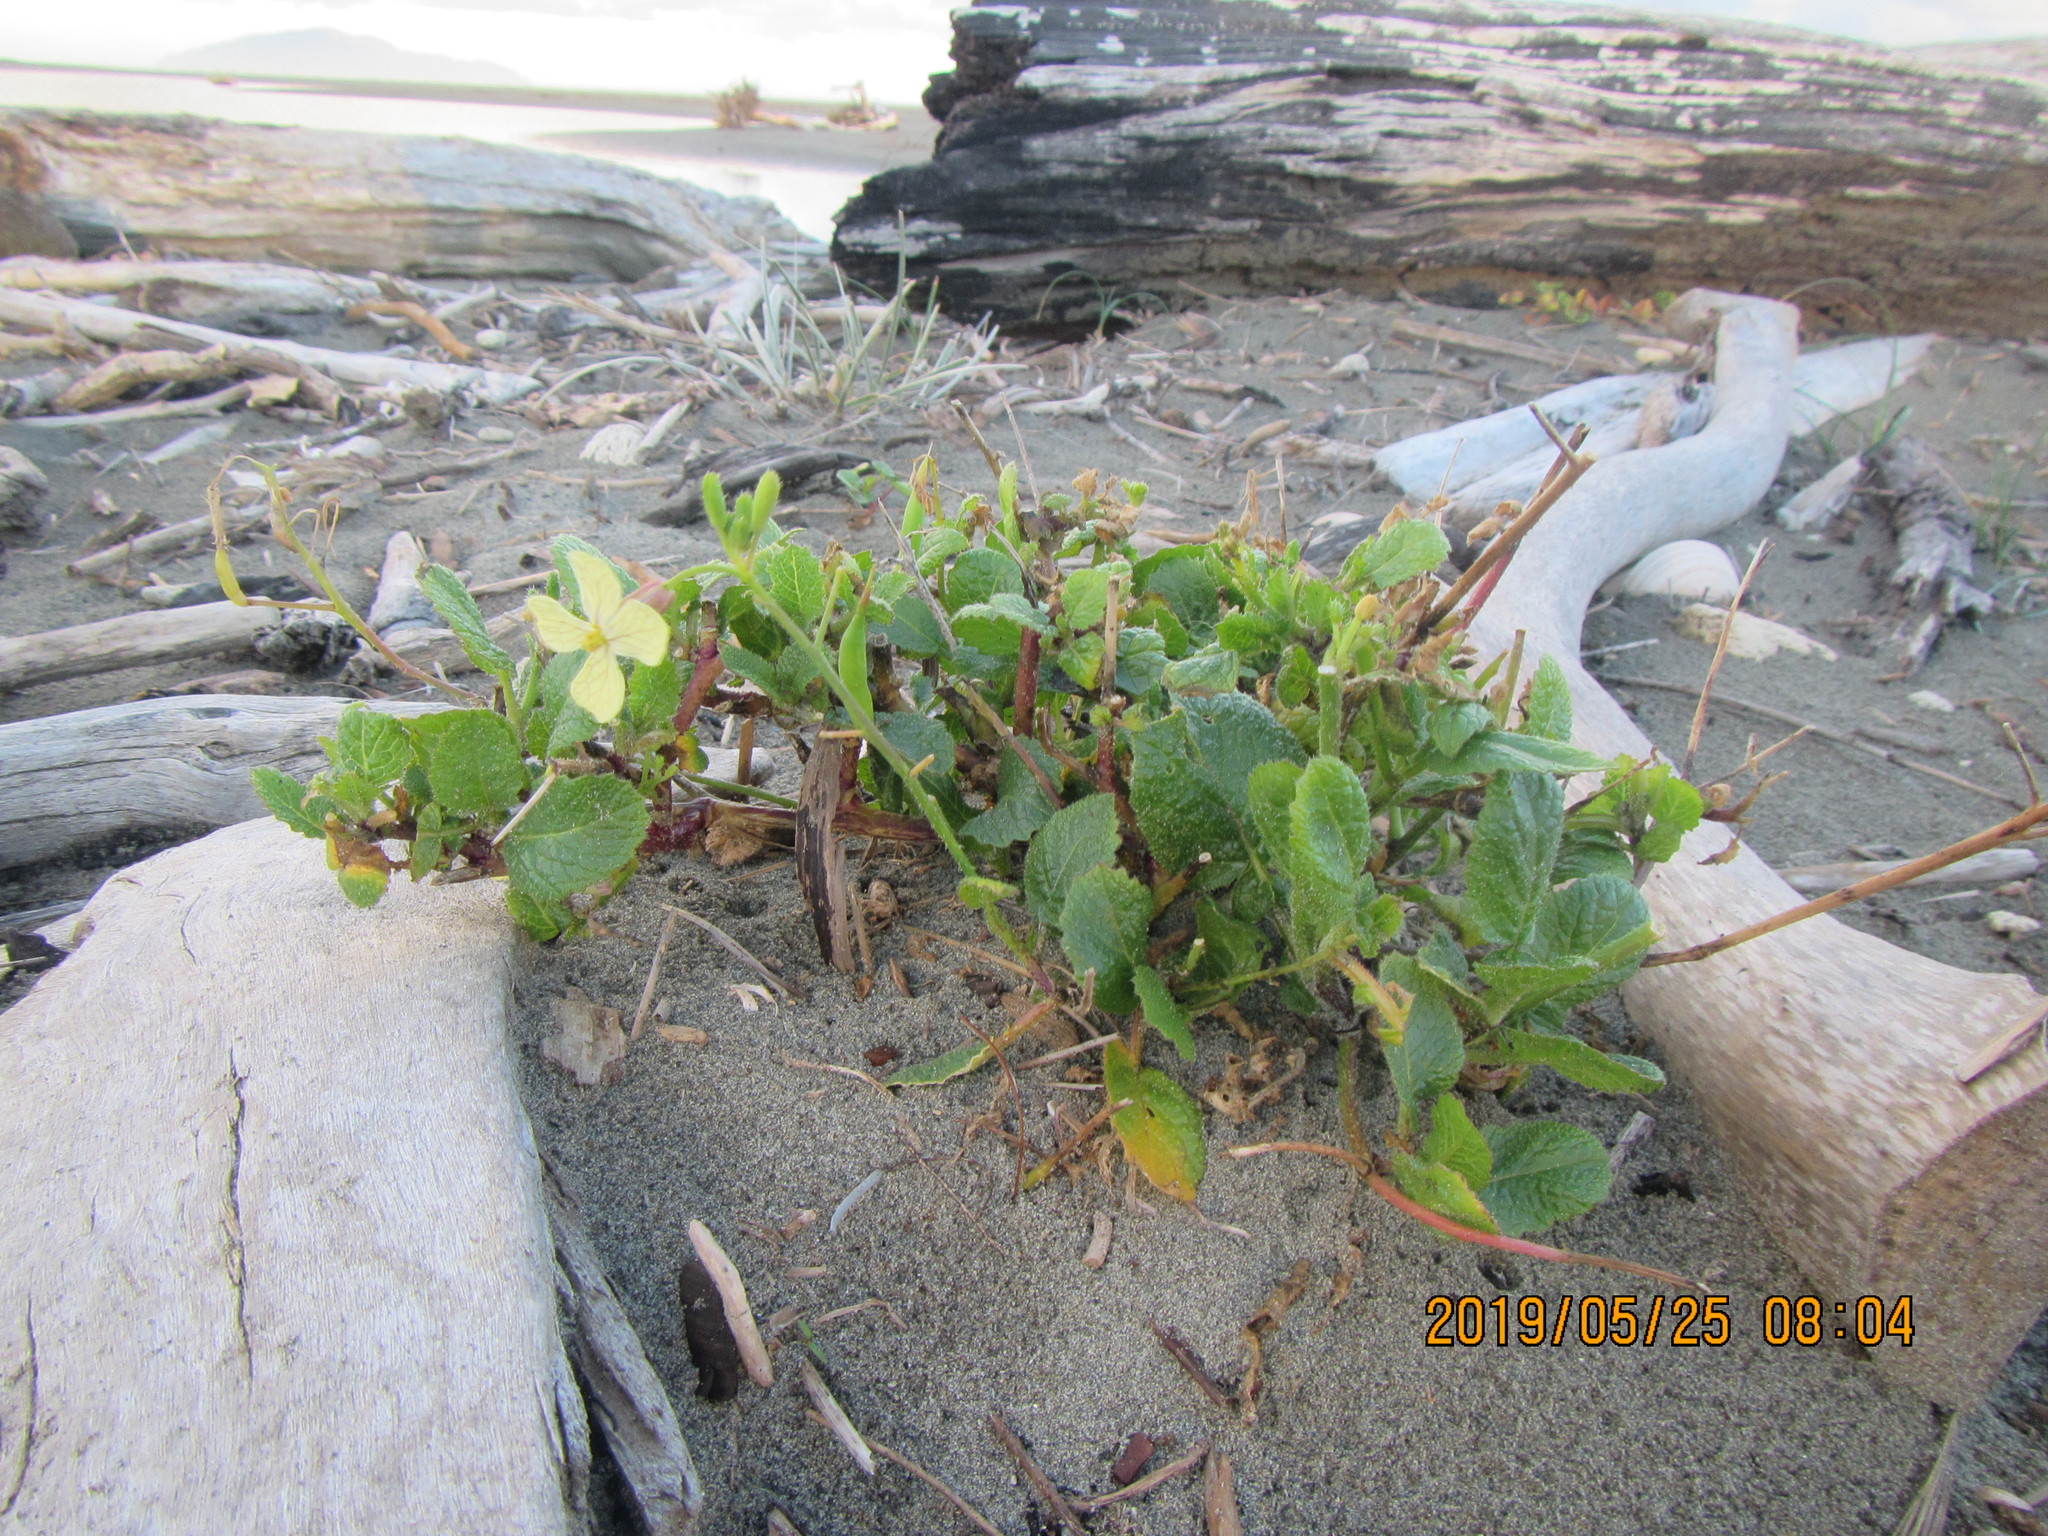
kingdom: Plantae
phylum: Tracheophyta
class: Magnoliopsida
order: Brassicales
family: Brassicaceae
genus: Raphanus
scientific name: Raphanus raphanistrum
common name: Wild radish
